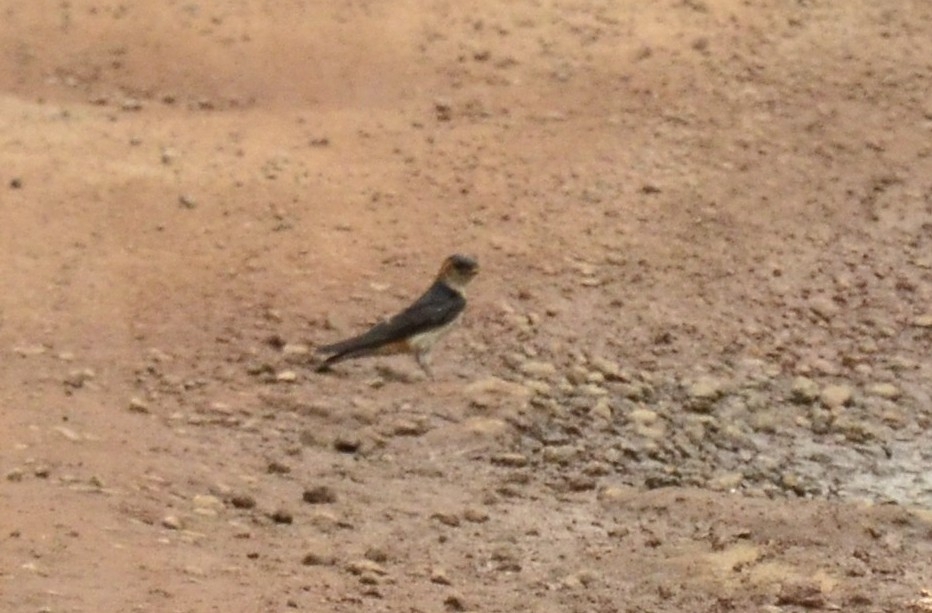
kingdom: Animalia
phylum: Chordata
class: Aves
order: Passeriformes
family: Hirundinidae
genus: Cecropis
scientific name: Cecropis daurica
